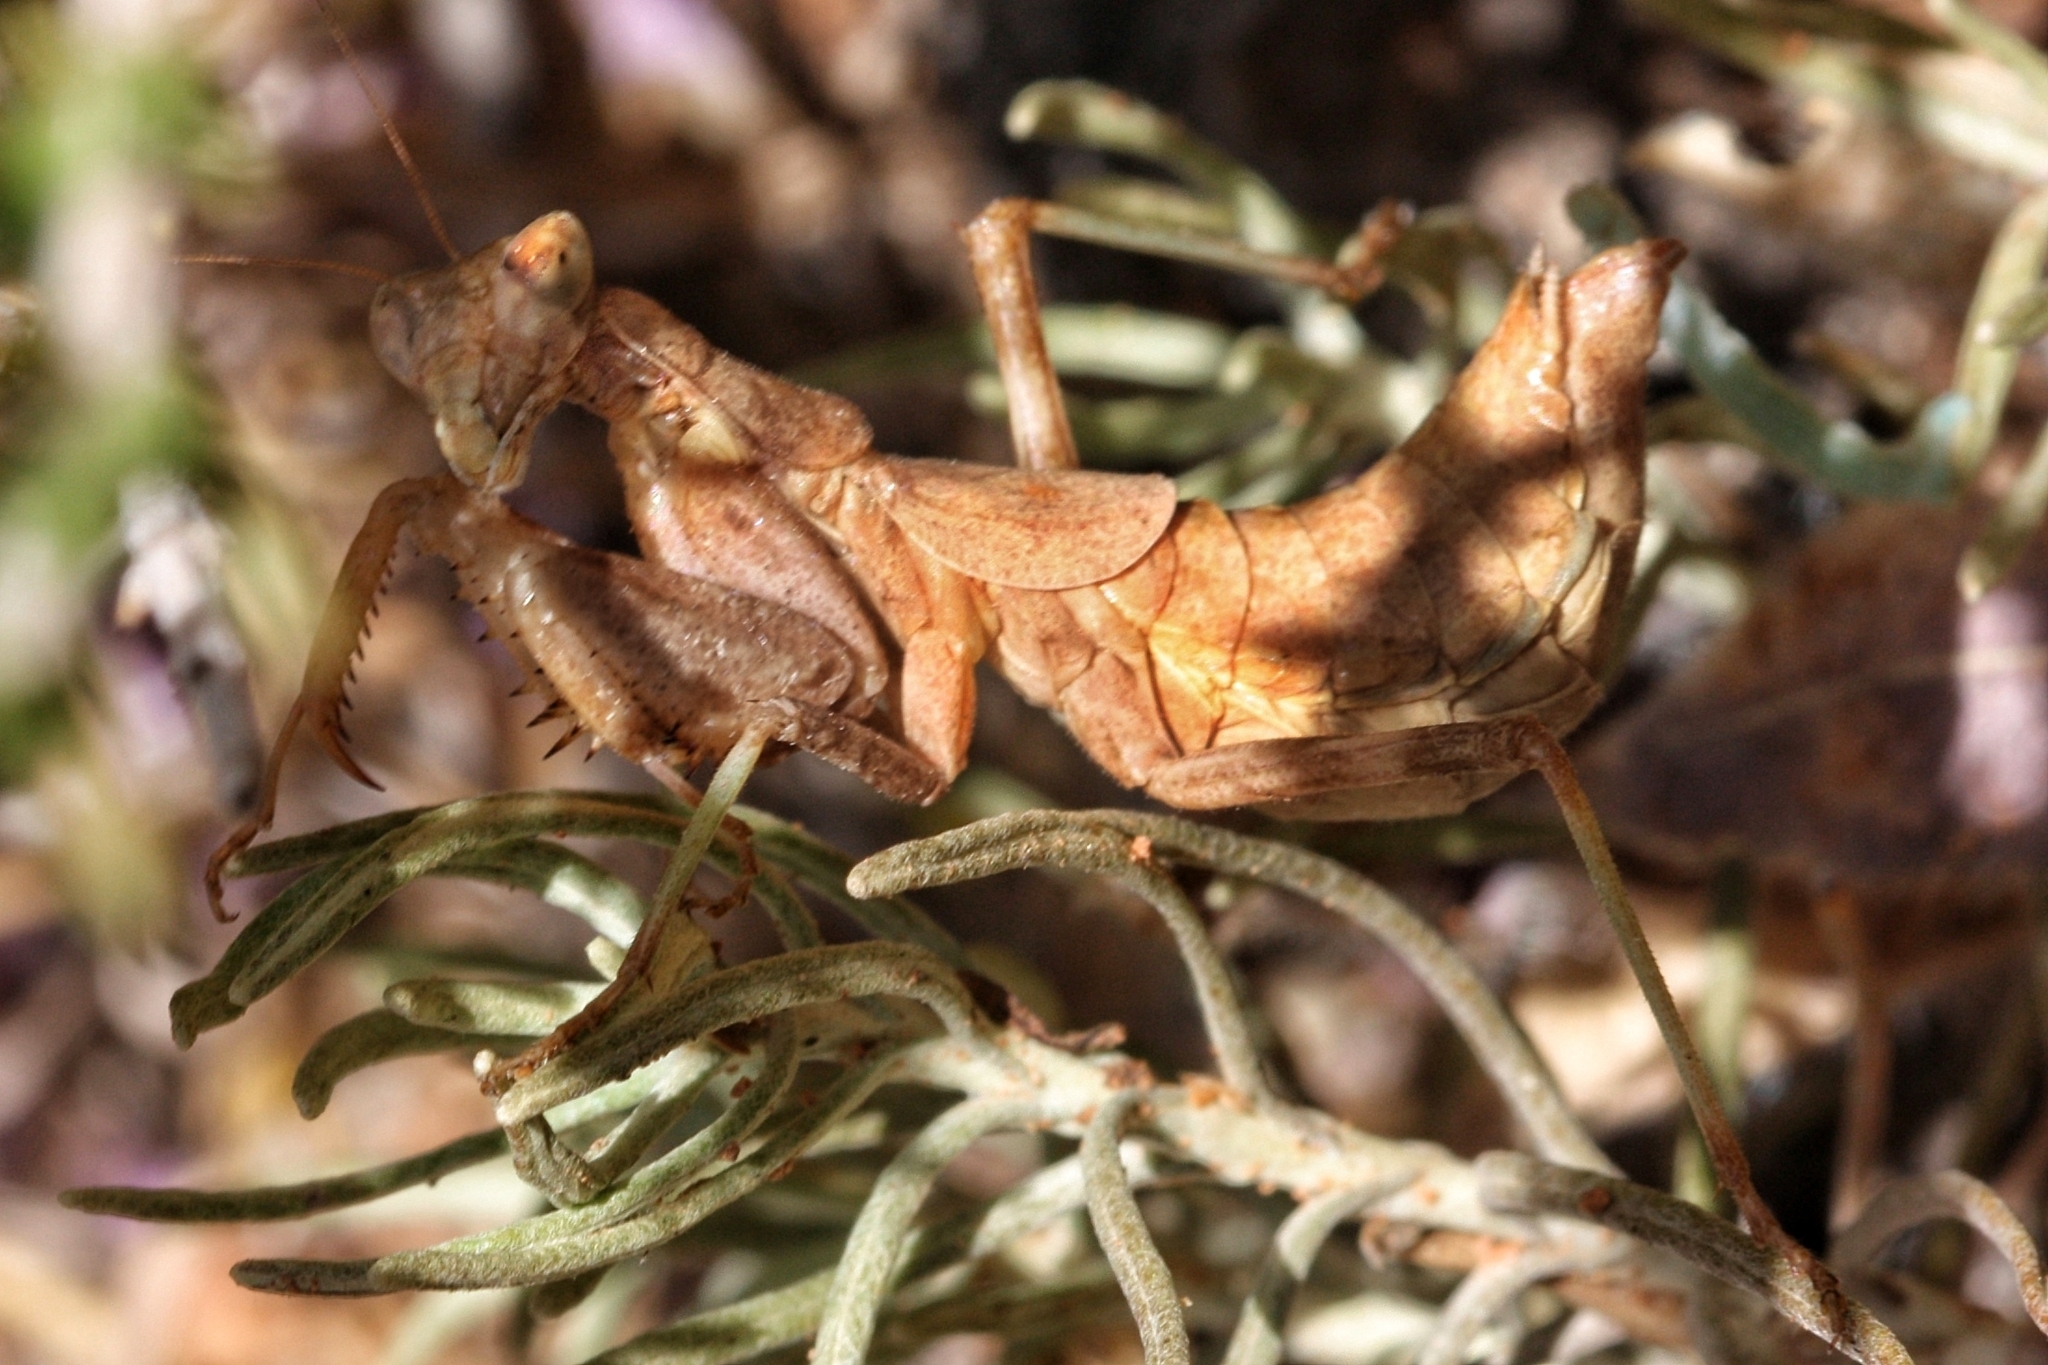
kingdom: Animalia
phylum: Arthropoda
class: Insecta
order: Mantodea
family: Amelidae
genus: Ameles
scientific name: Ameles spallanzania
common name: European dwarf mantis
